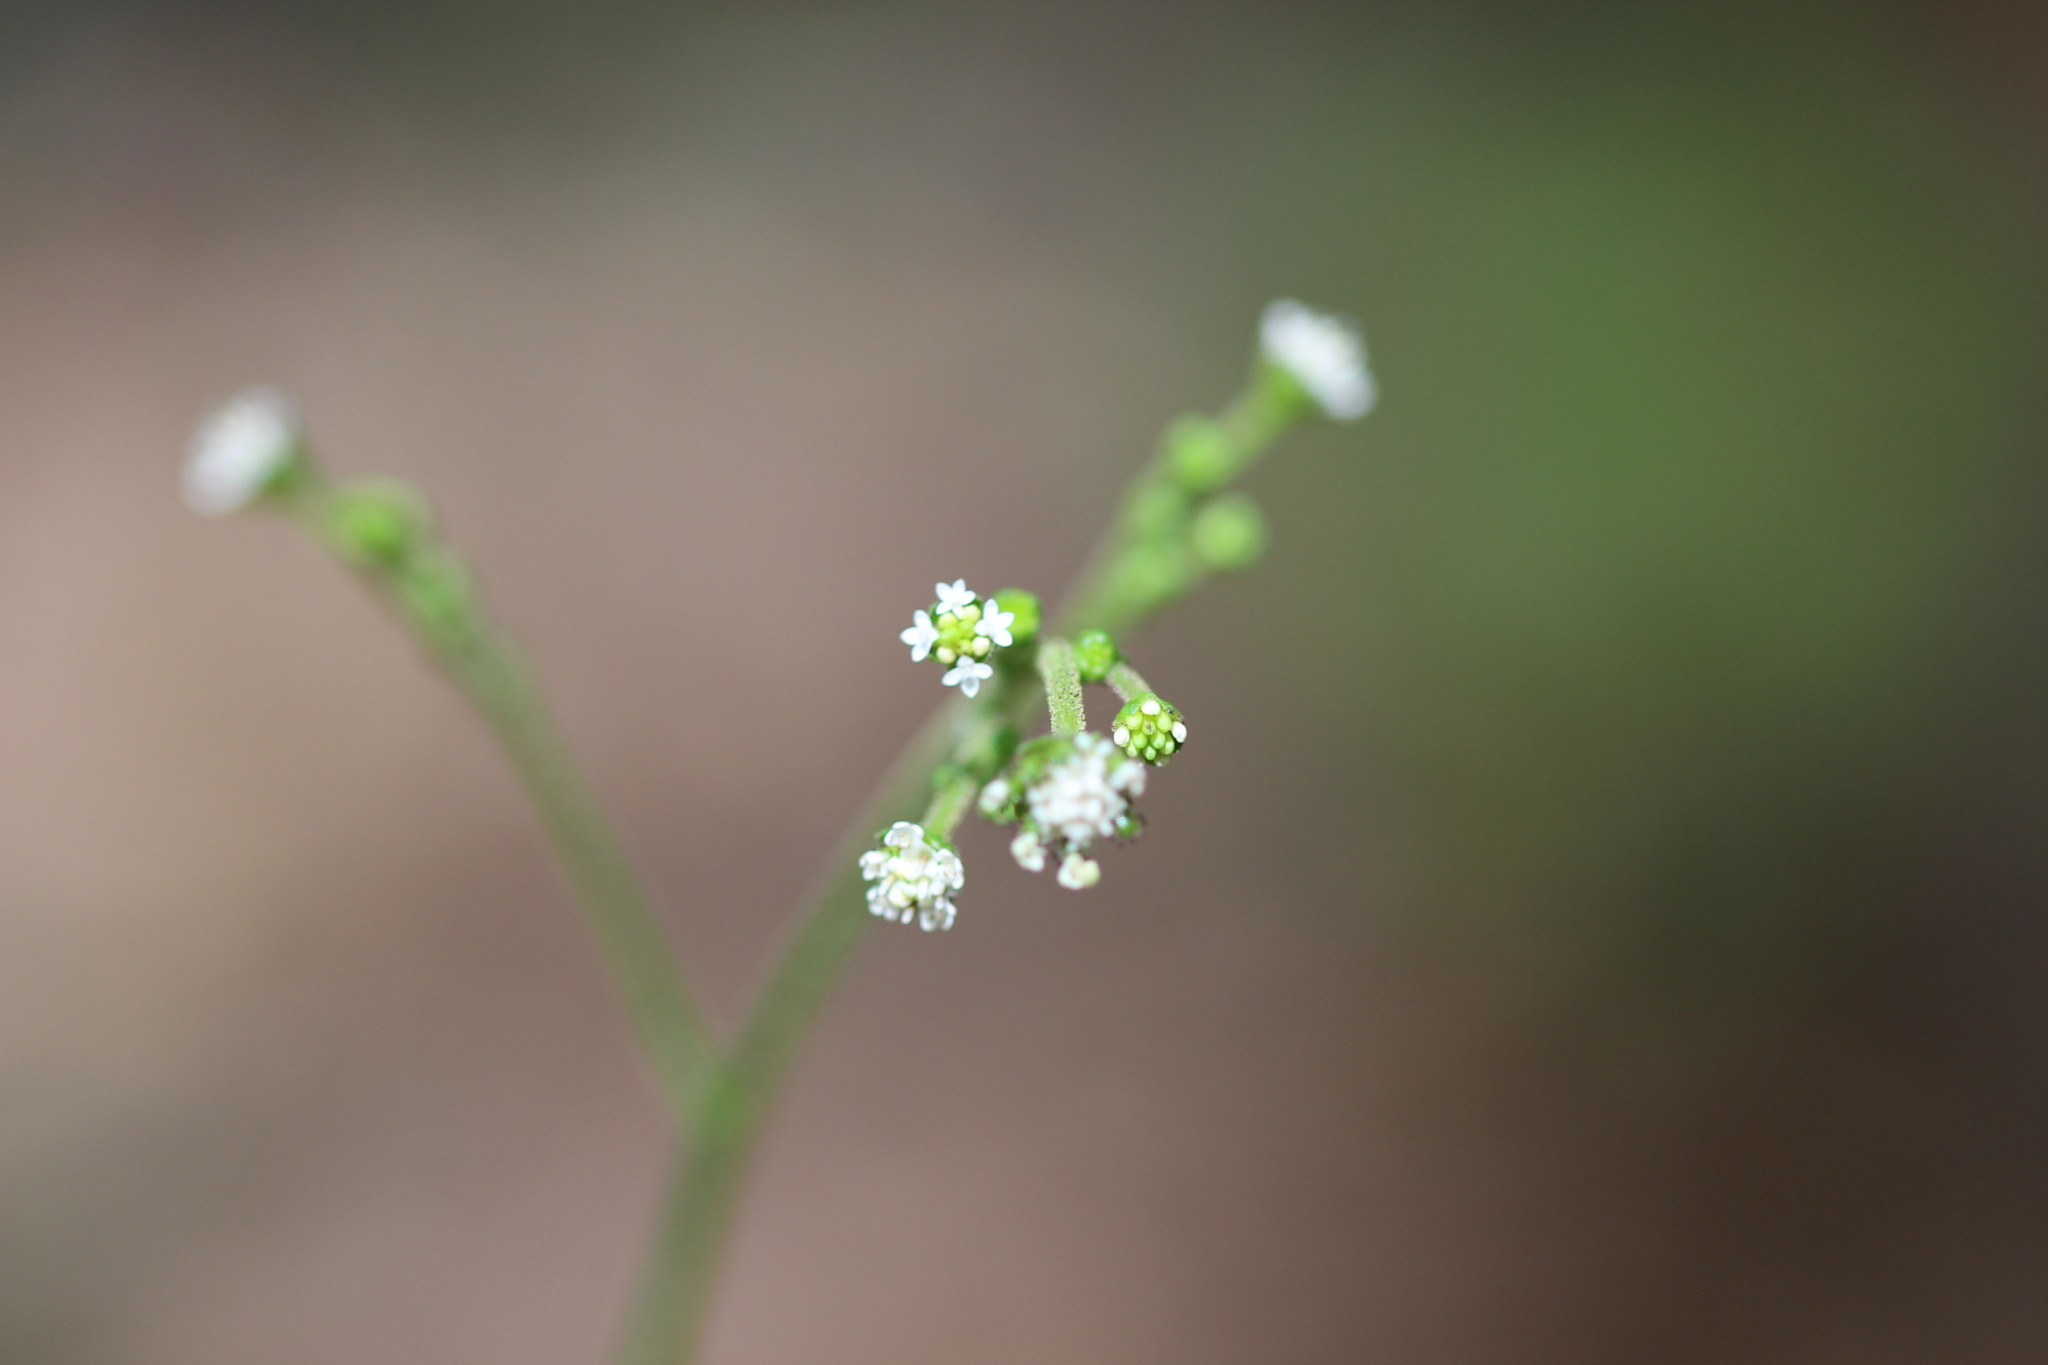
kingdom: Plantae
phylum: Tracheophyta
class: Magnoliopsida
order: Asterales
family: Asteraceae
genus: Adenocaulon
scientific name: Adenocaulon bicolor
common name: Trailplant
